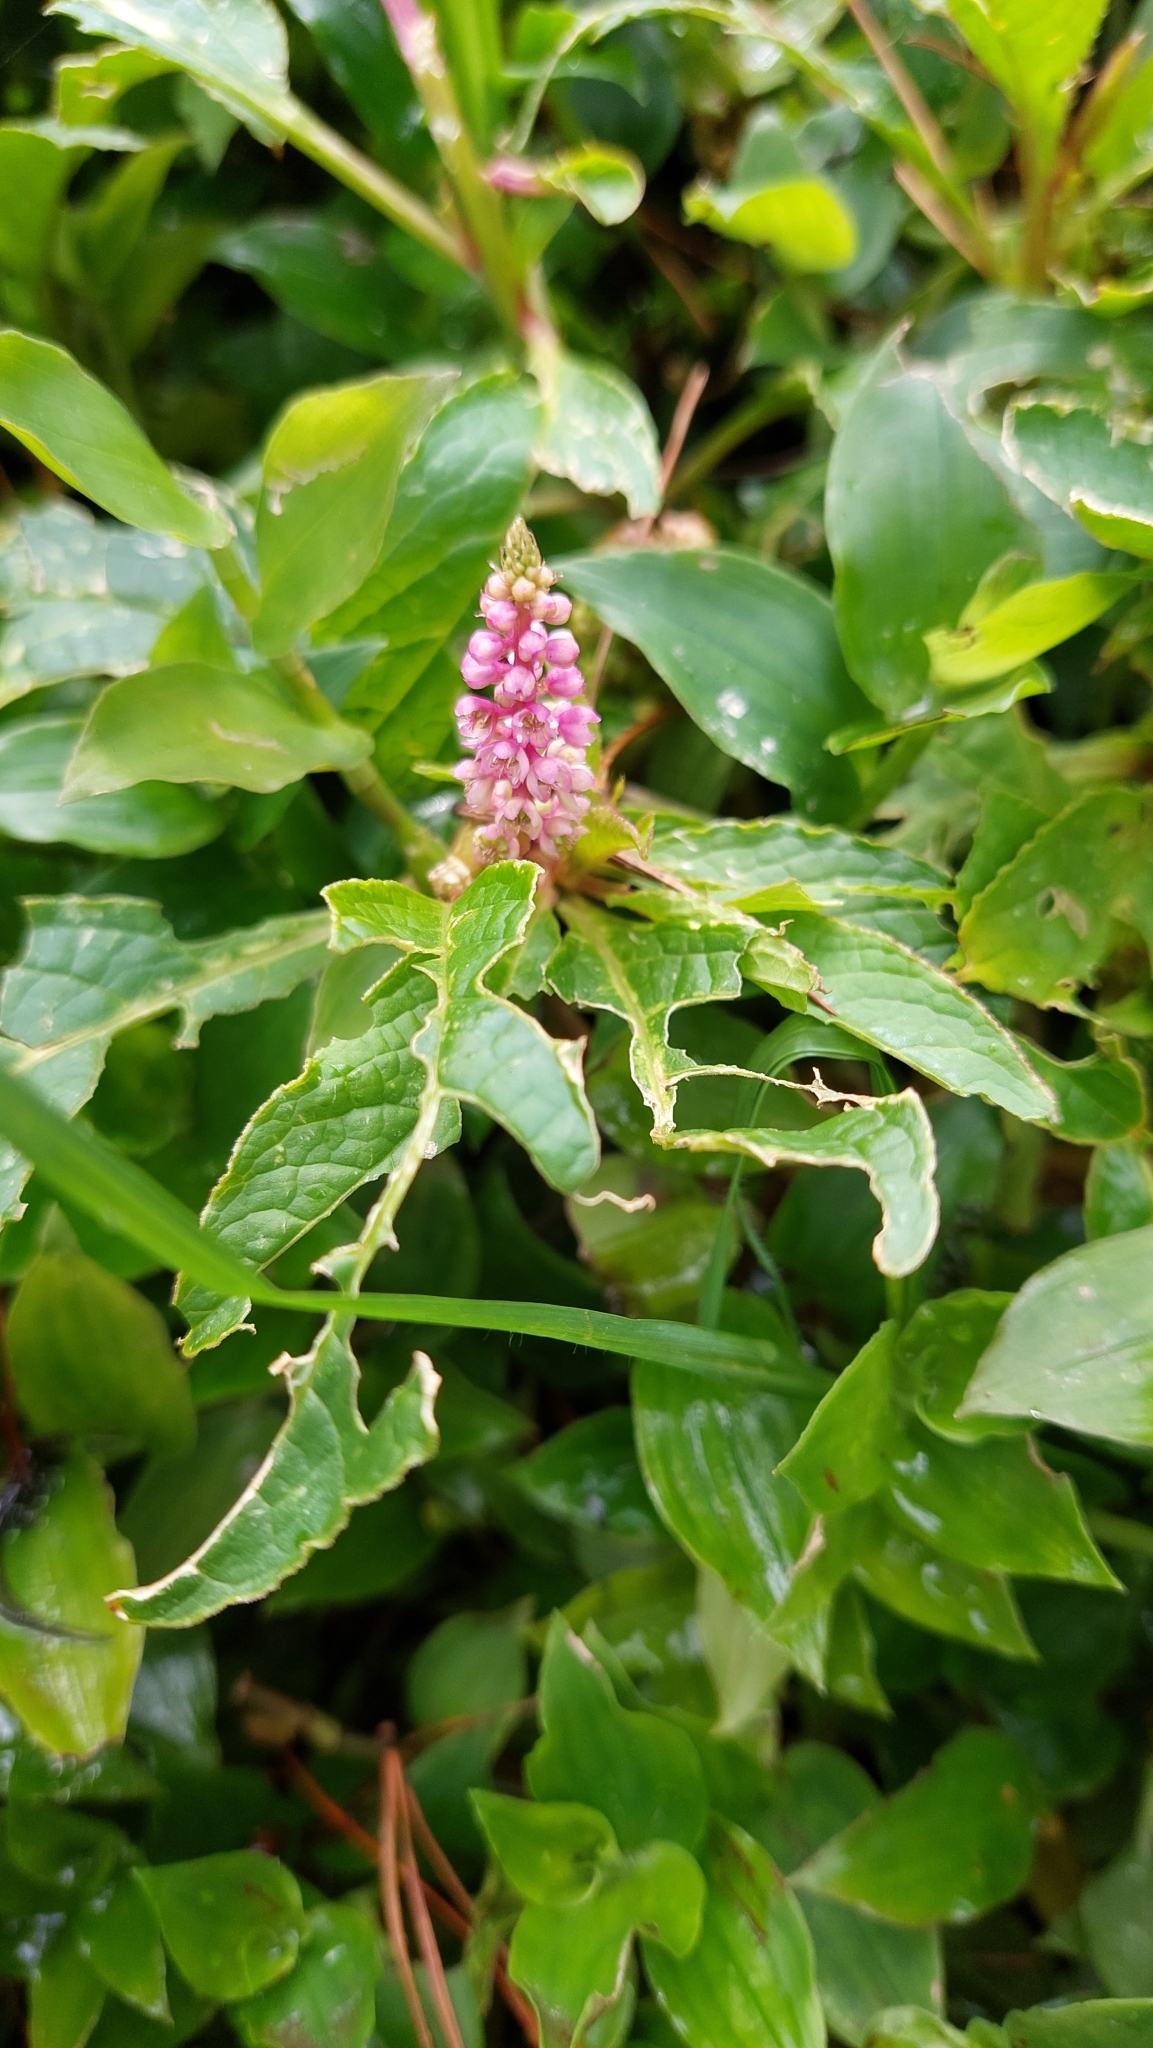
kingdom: Plantae
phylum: Tracheophyta
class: Magnoliopsida
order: Caryophyllales
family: Phytolaccaceae
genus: Phytolacca
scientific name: Phytolacca bogotensis
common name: Southern pokeweed
